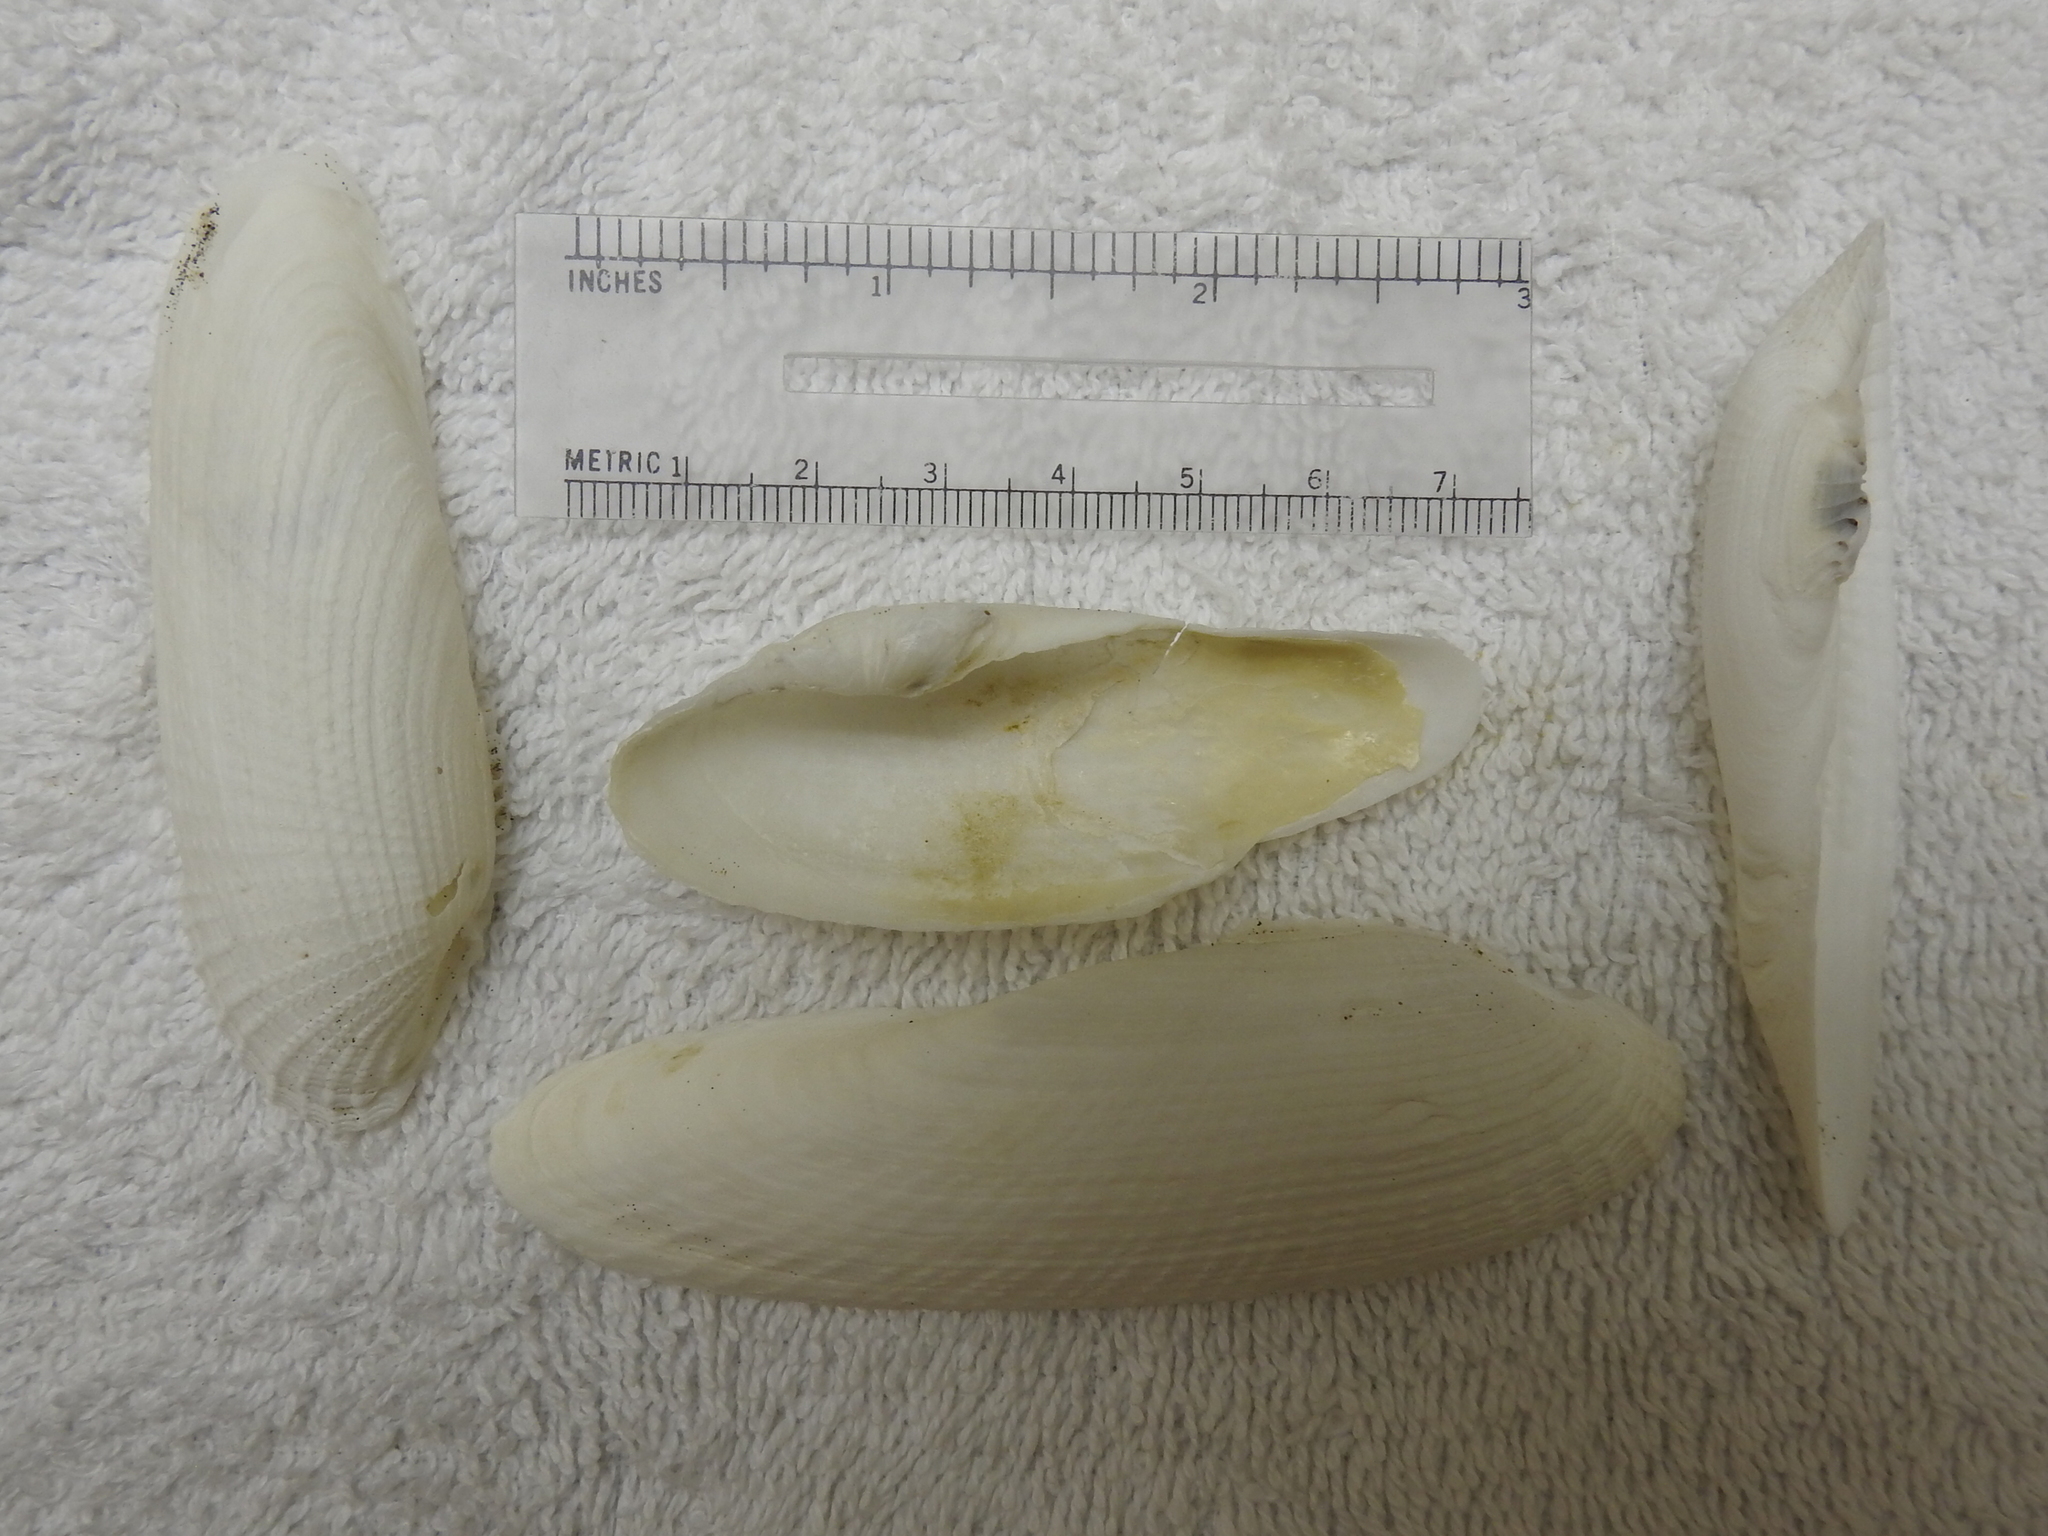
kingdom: Animalia
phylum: Mollusca
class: Bivalvia
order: Myida
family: Pholadidae
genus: Pholas
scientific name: Pholas campechiensis
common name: Campeche angel wing
